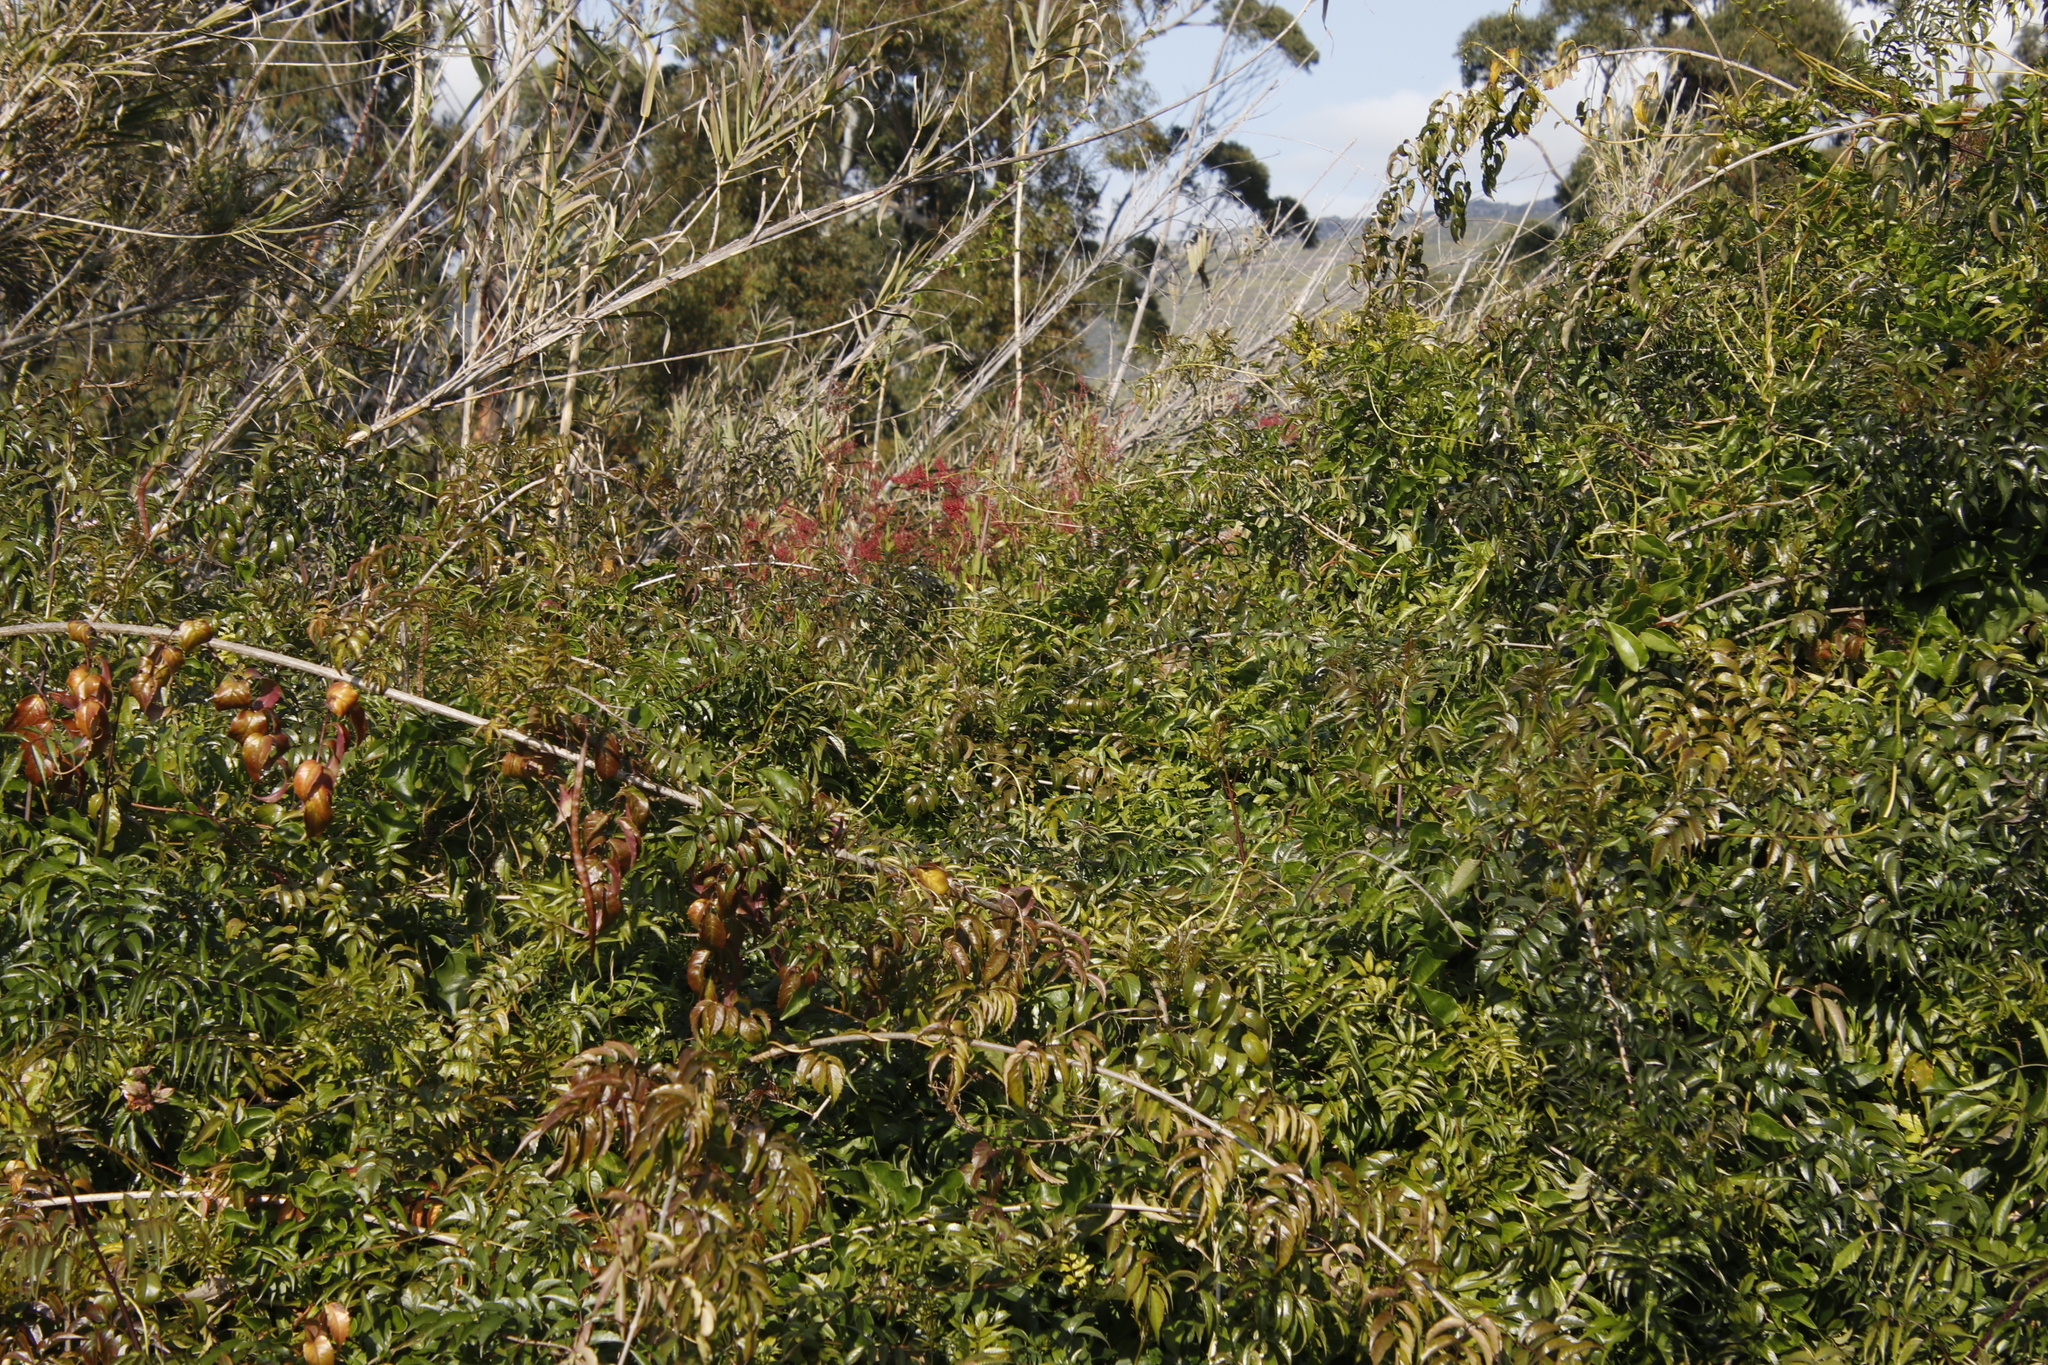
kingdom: Plantae
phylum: Tracheophyta
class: Magnoliopsida
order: Caryophyllales
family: Polygonaceae
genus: Rumex
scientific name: Rumex usambarensis
